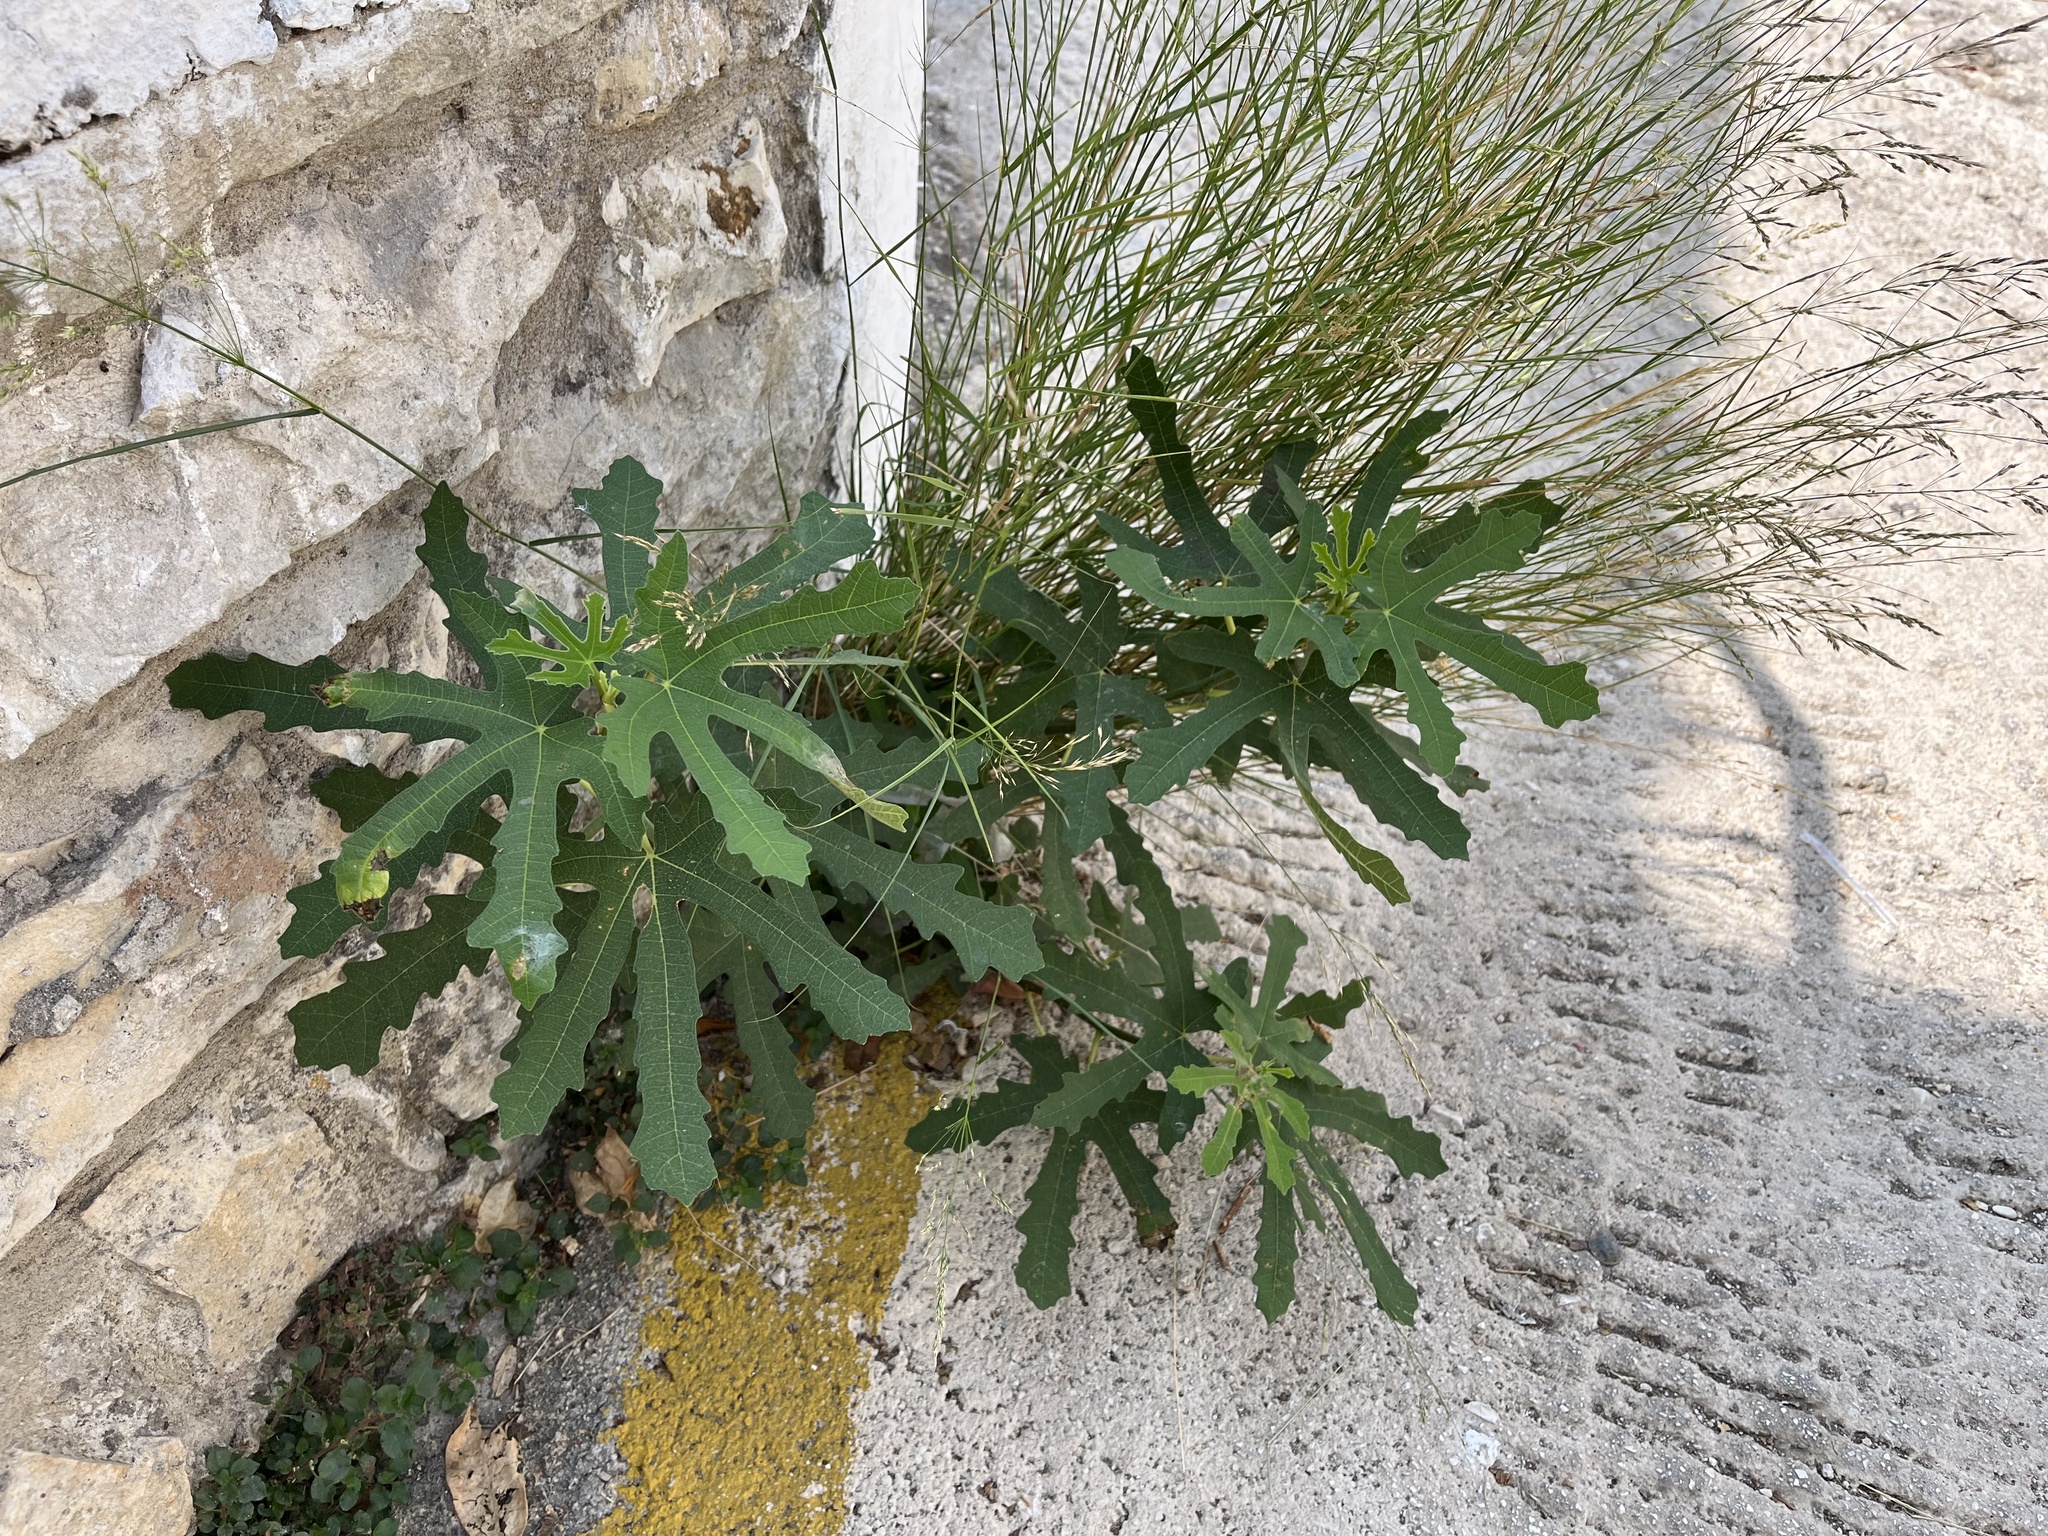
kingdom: Plantae
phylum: Tracheophyta
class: Magnoliopsida
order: Rosales
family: Moraceae
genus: Ficus
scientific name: Ficus carica
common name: Fig
